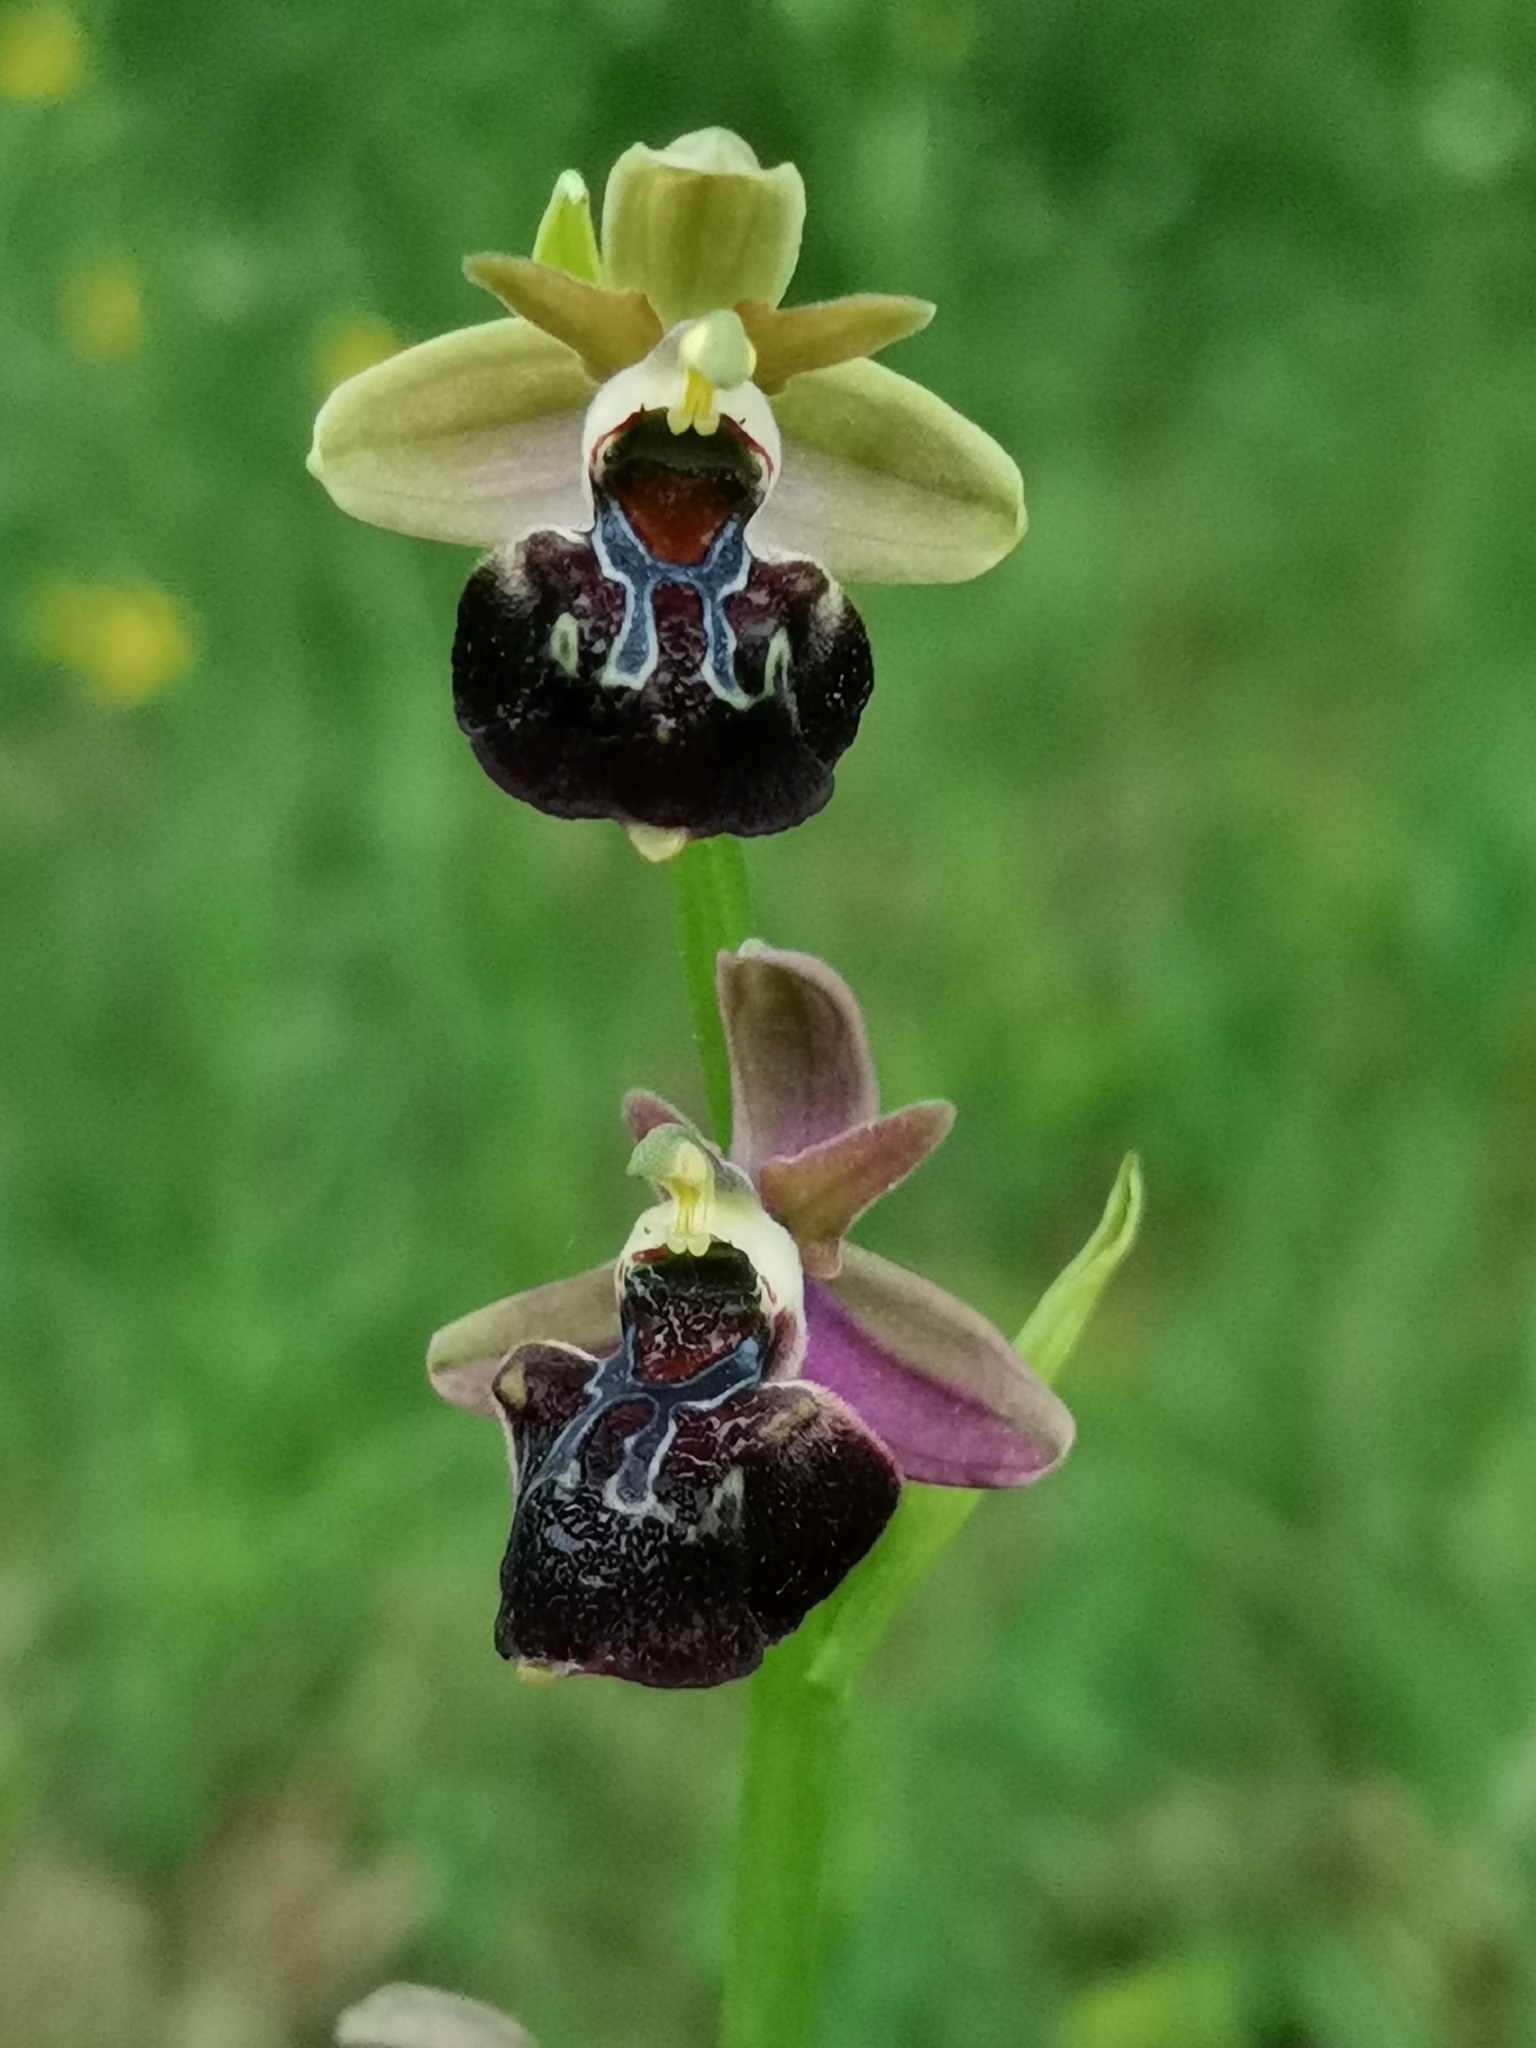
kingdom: Plantae
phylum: Tracheophyta
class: Liliopsida
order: Asparagales
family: Orchidaceae
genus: Ophrys
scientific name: Ophrys sphegodes
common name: Early spider-orchid
